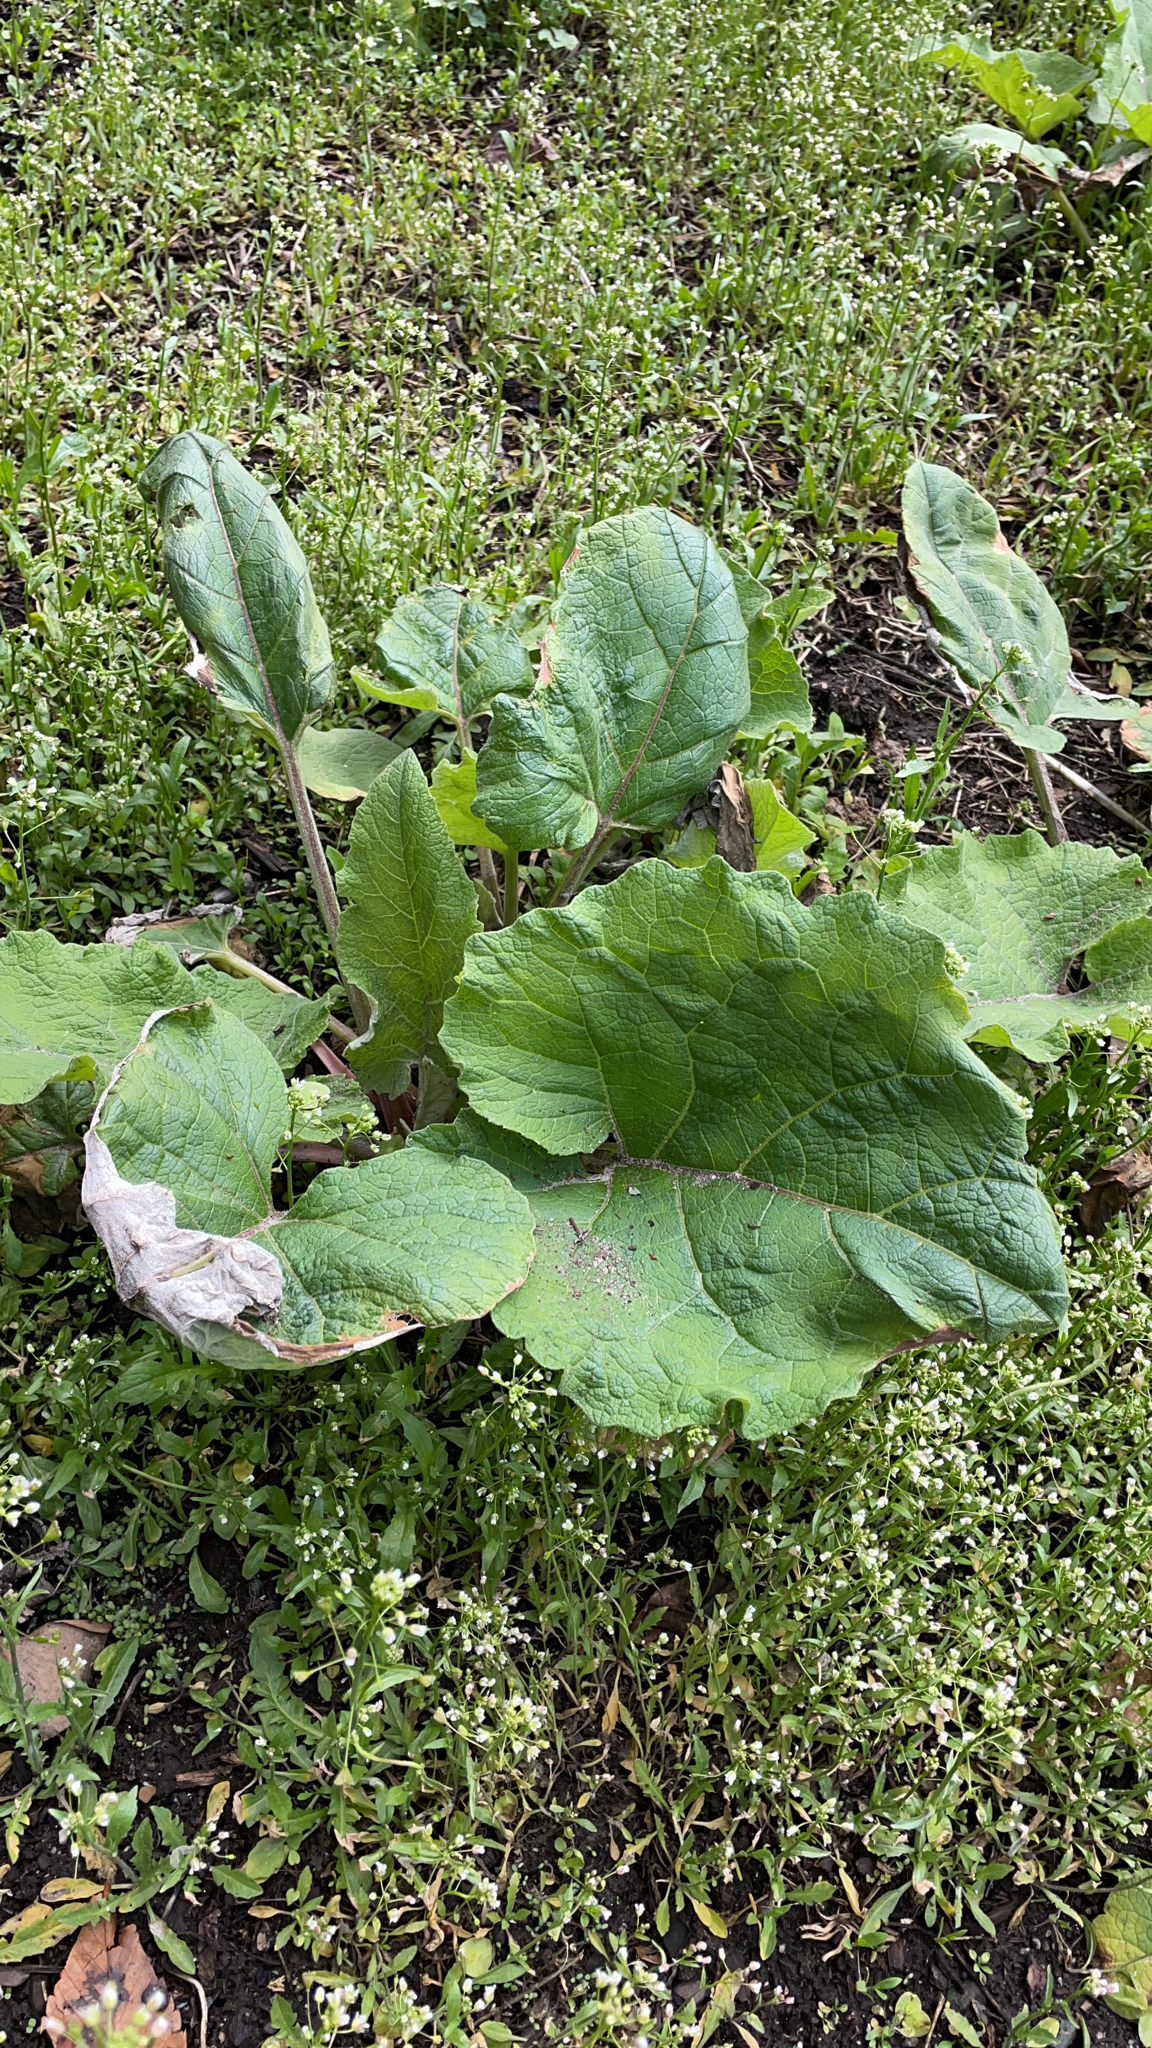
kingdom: Plantae
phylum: Tracheophyta
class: Magnoliopsida
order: Asterales
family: Asteraceae
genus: Arctium
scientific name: Arctium
